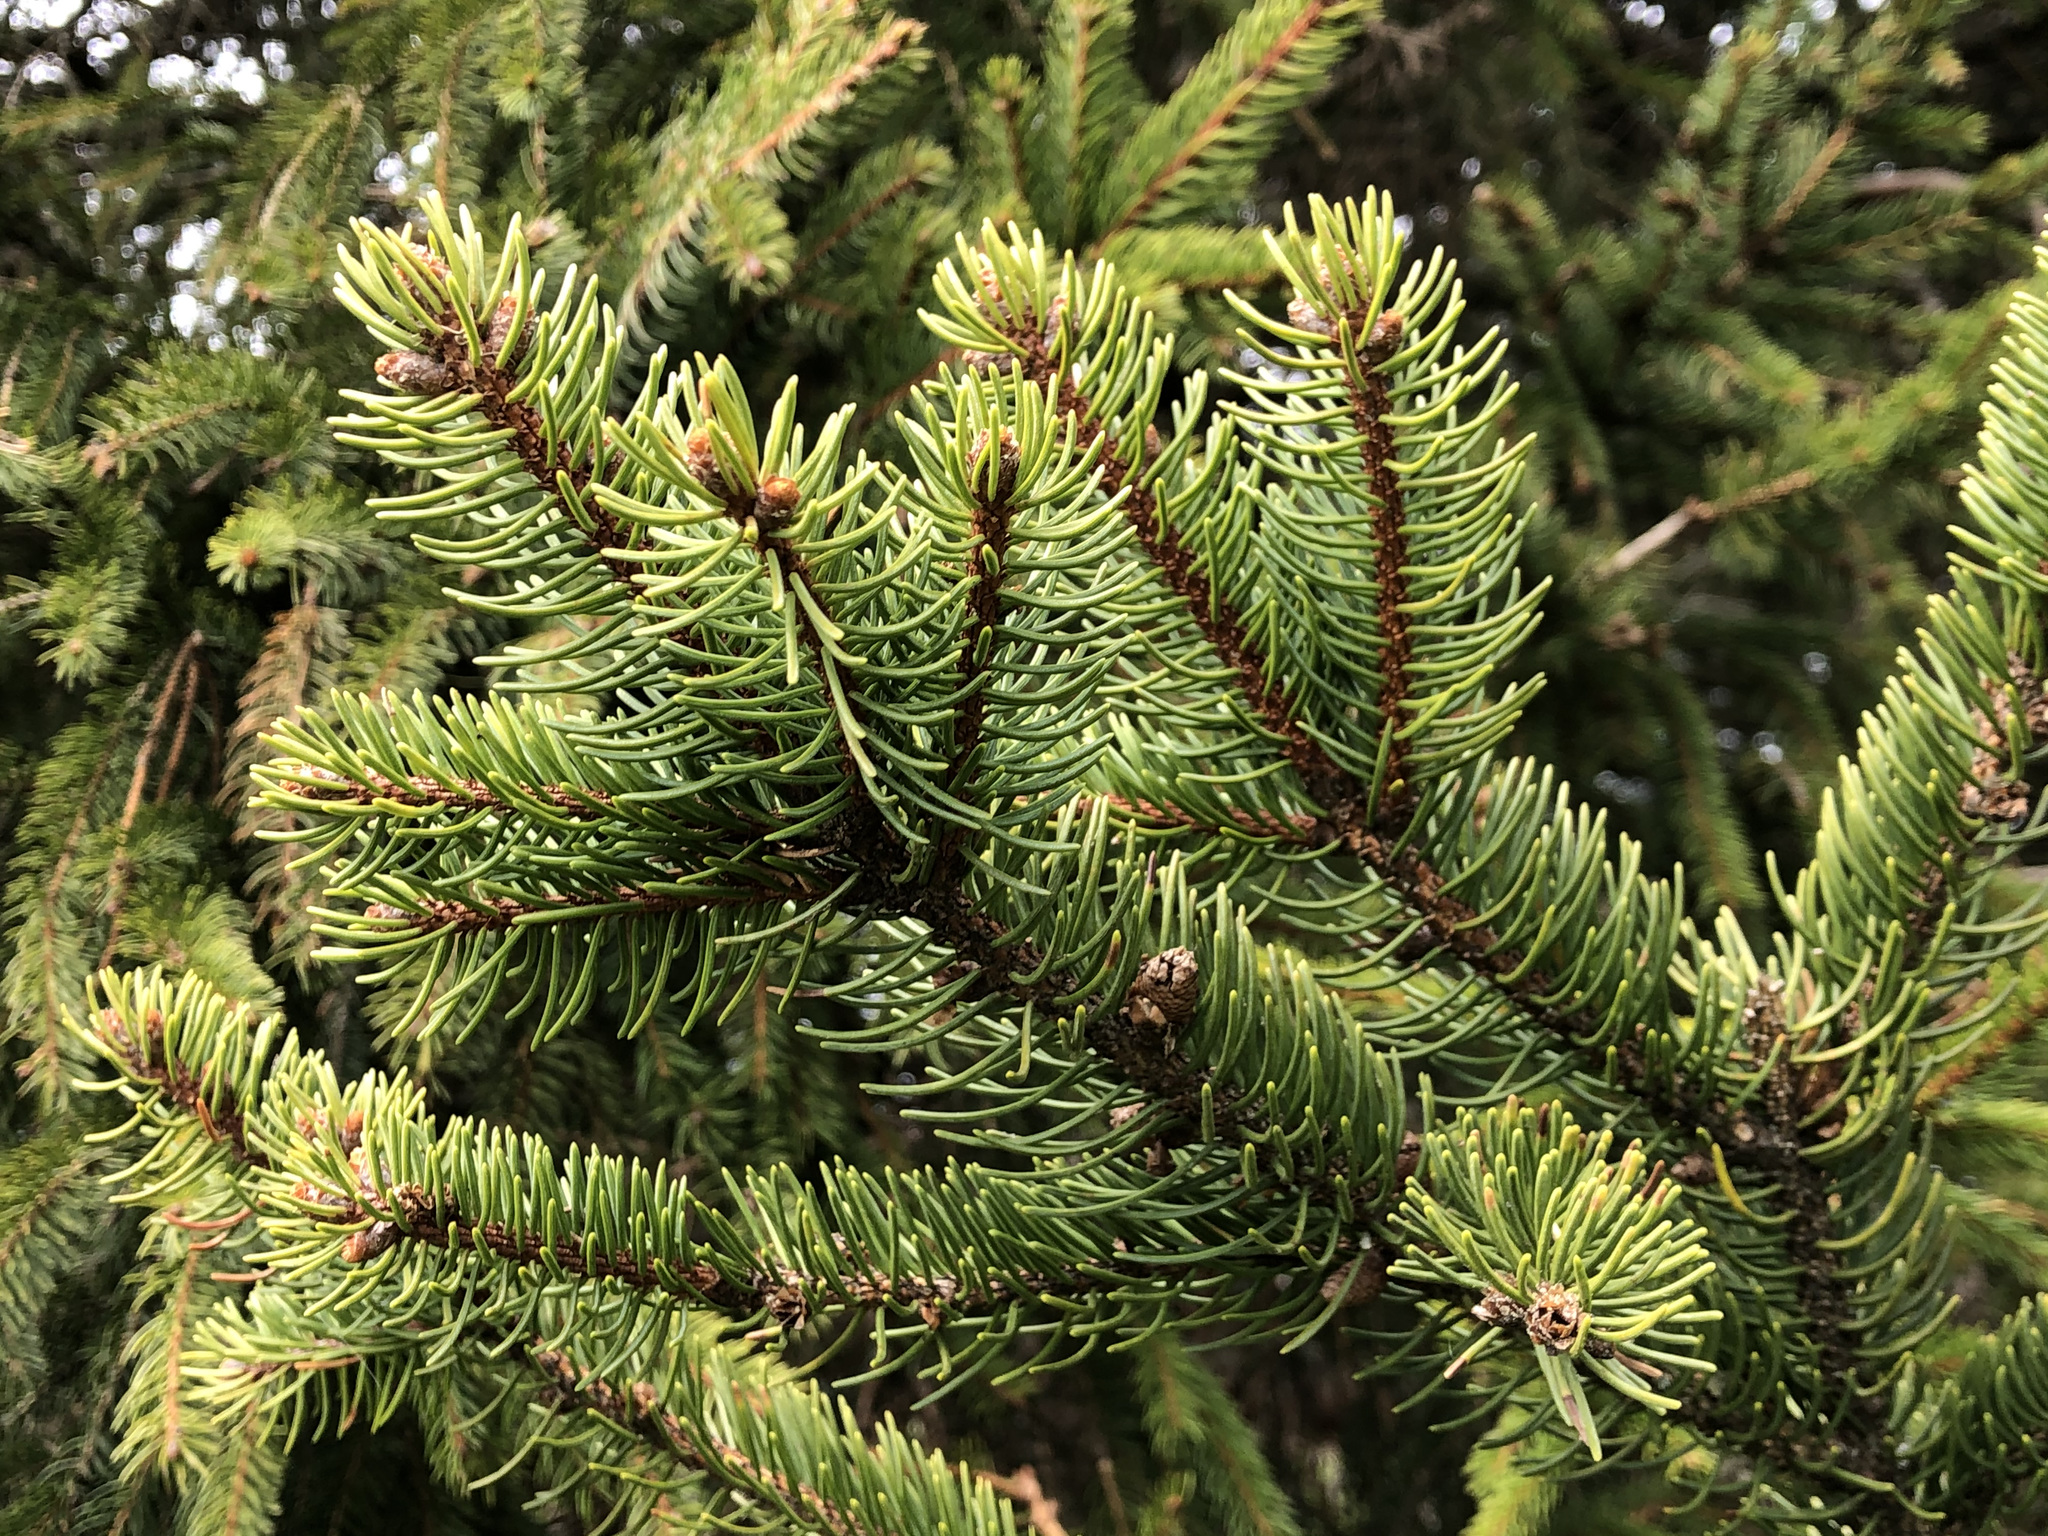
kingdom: Plantae
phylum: Tracheophyta
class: Pinopsida
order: Pinales
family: Pinaceae
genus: Picea
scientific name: Picea abies
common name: Norway spruce
